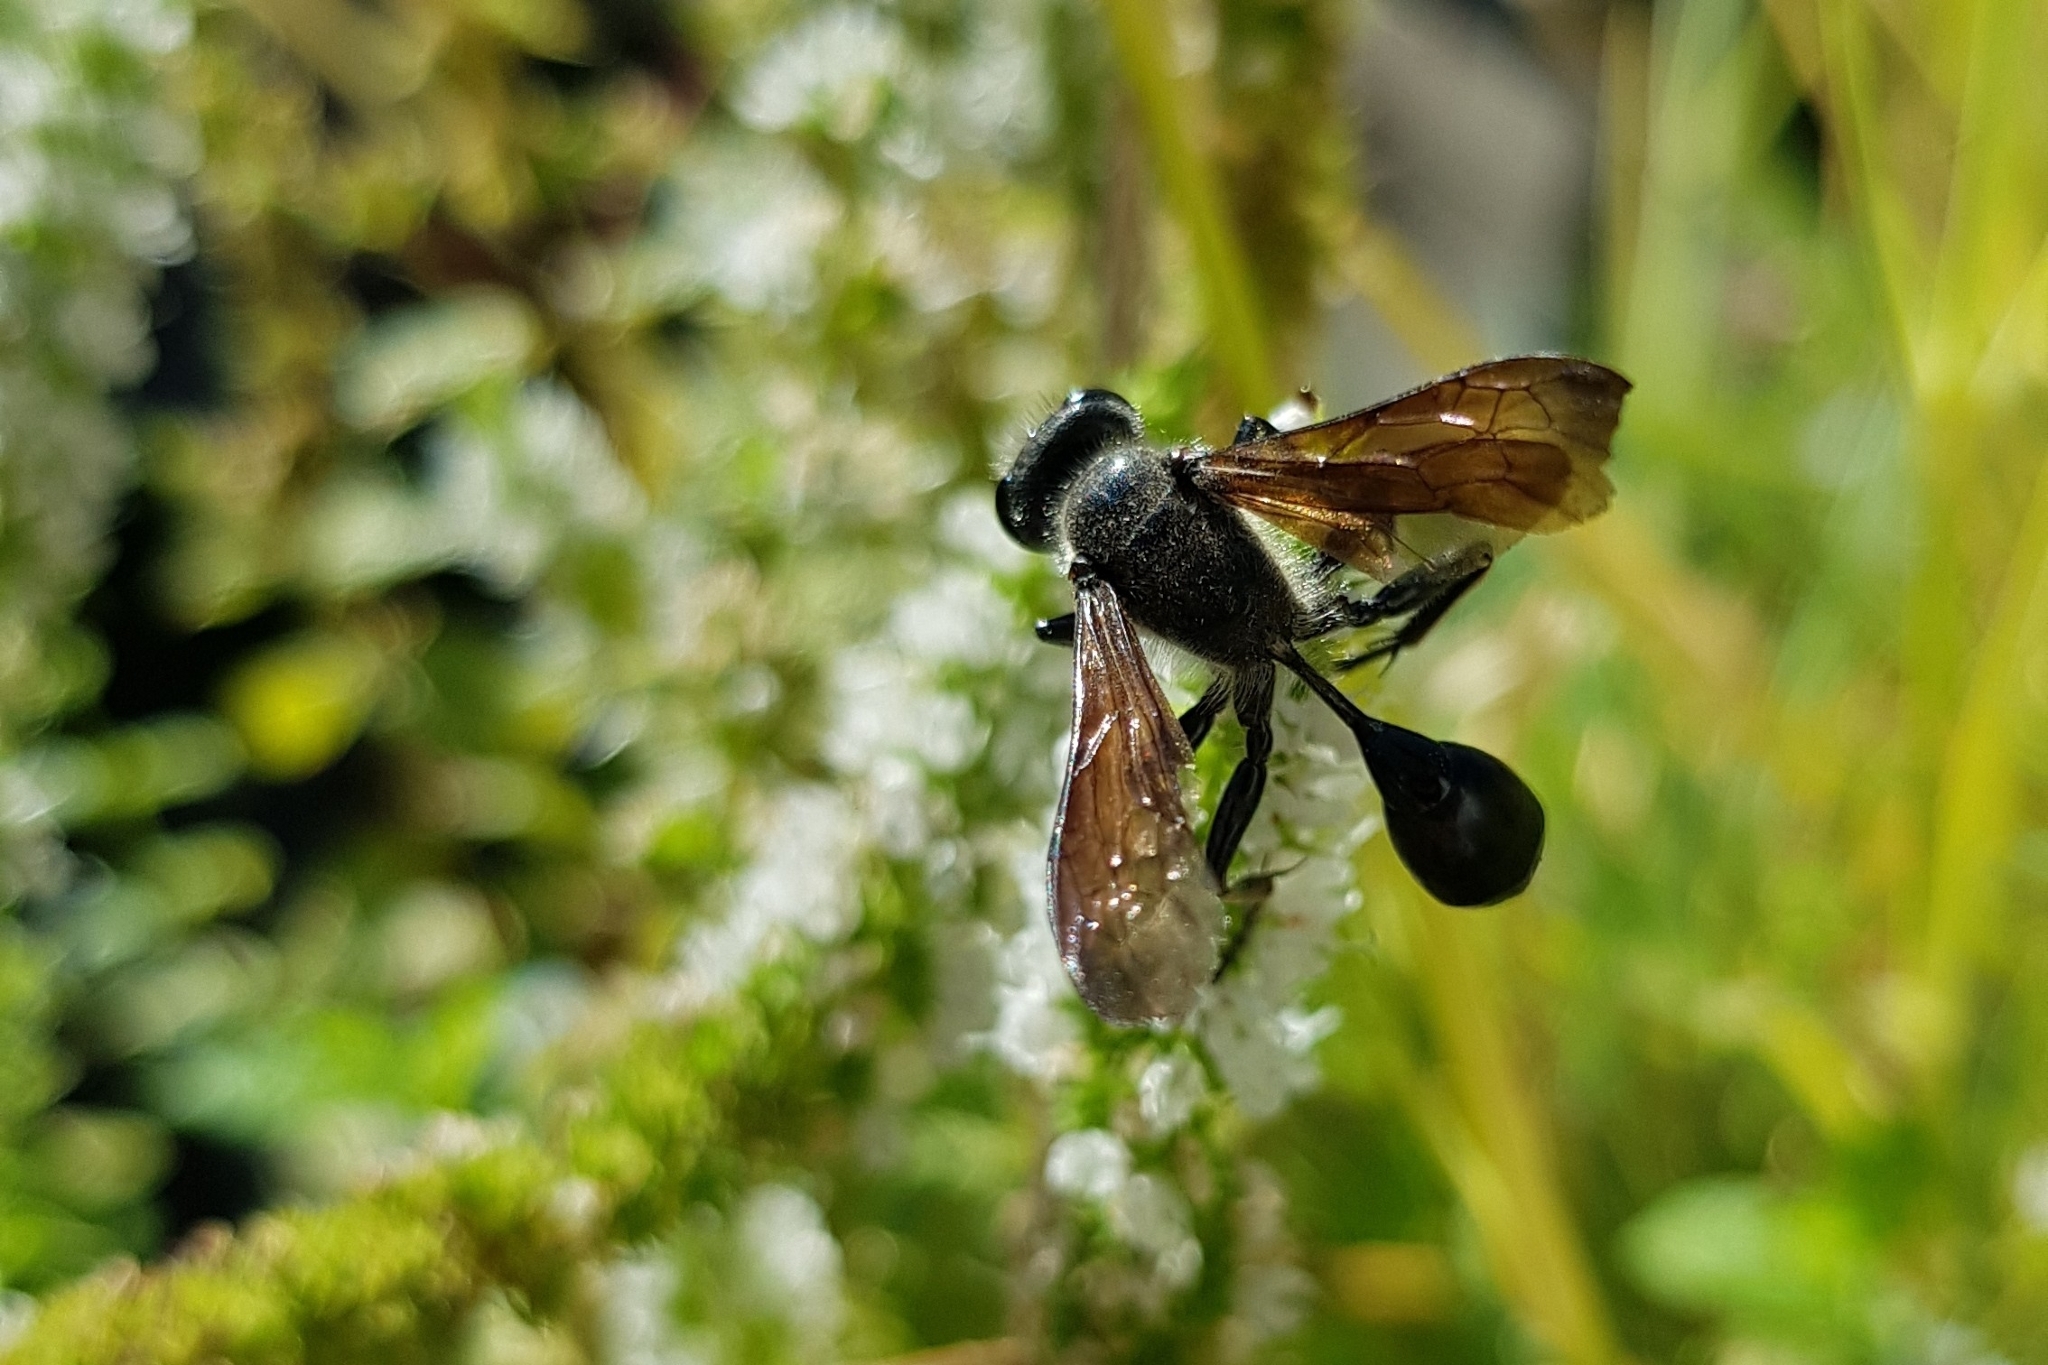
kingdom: Animalia
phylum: Arthropoda
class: Insecta
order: Hymenoptera
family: Sphecidae
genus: Isodontia
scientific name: Isodontia mexicana
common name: Mud dauber
